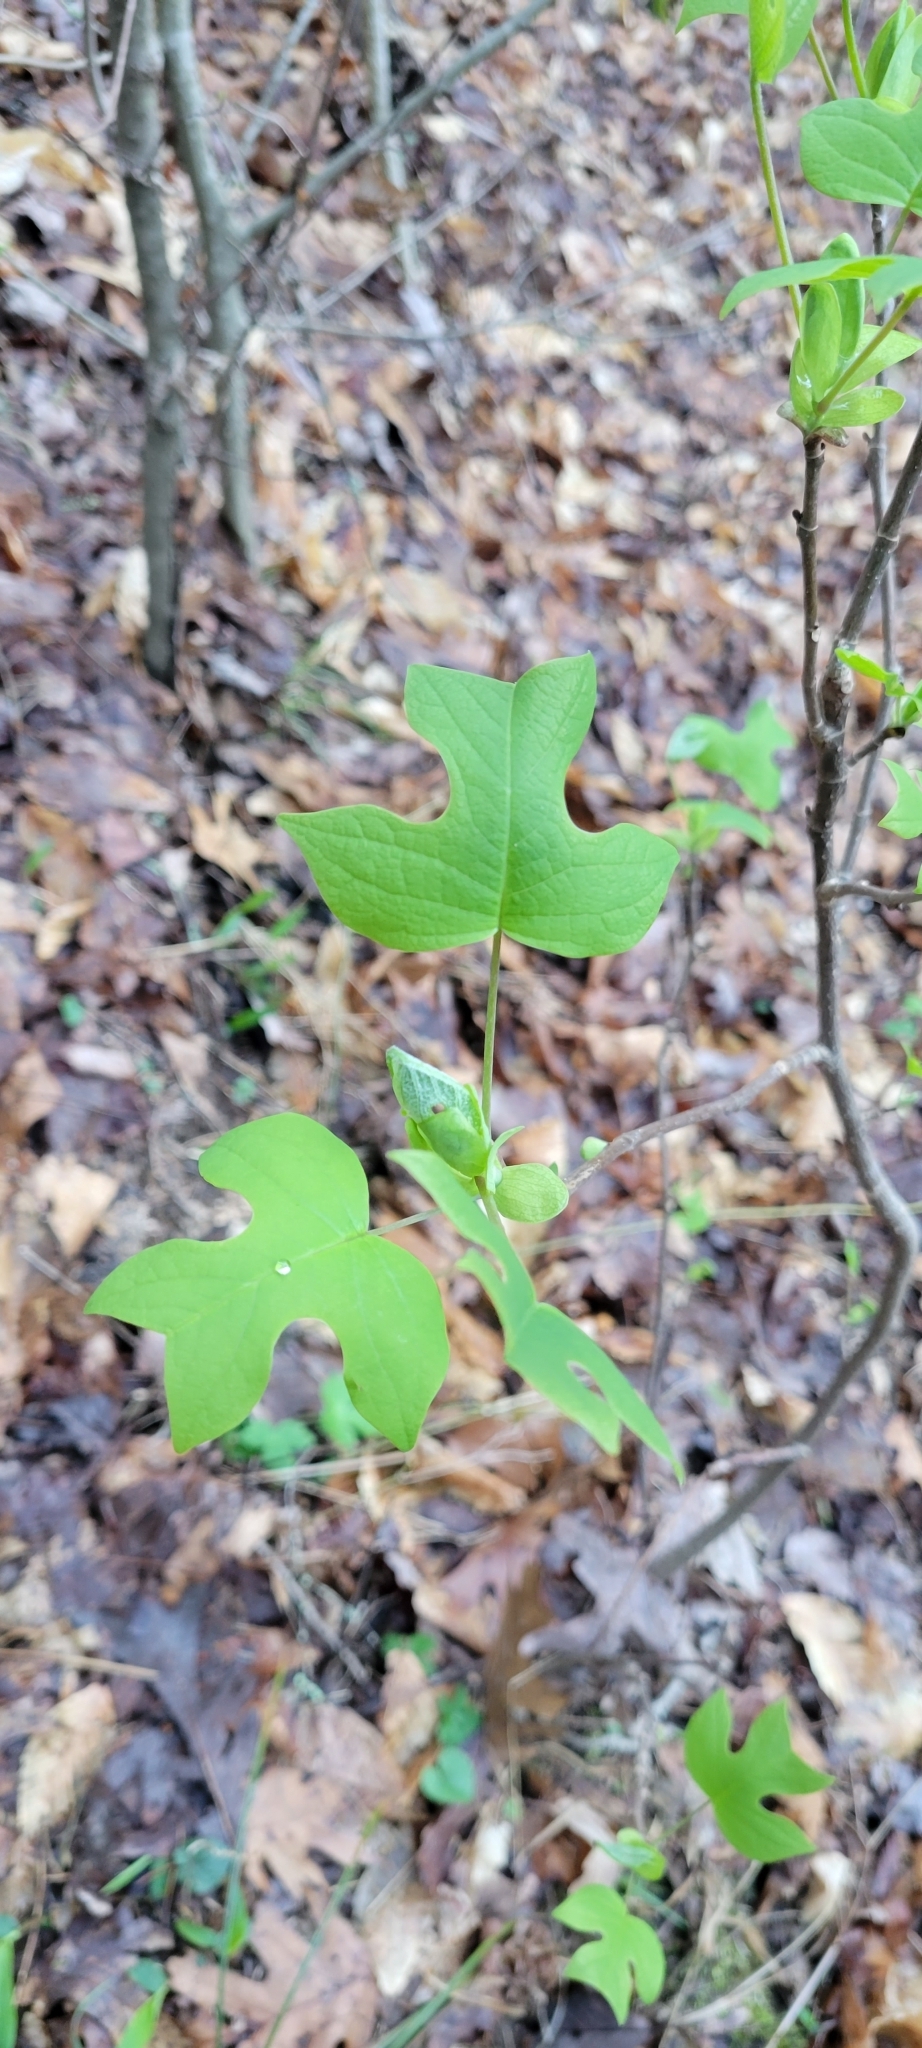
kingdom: Plantae
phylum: Tracheophyta
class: Magnoliopsida
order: Magnoliales
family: Magnoliaceae
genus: Liriodendron
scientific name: Liriodendron tulipifera
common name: Tulip tree
